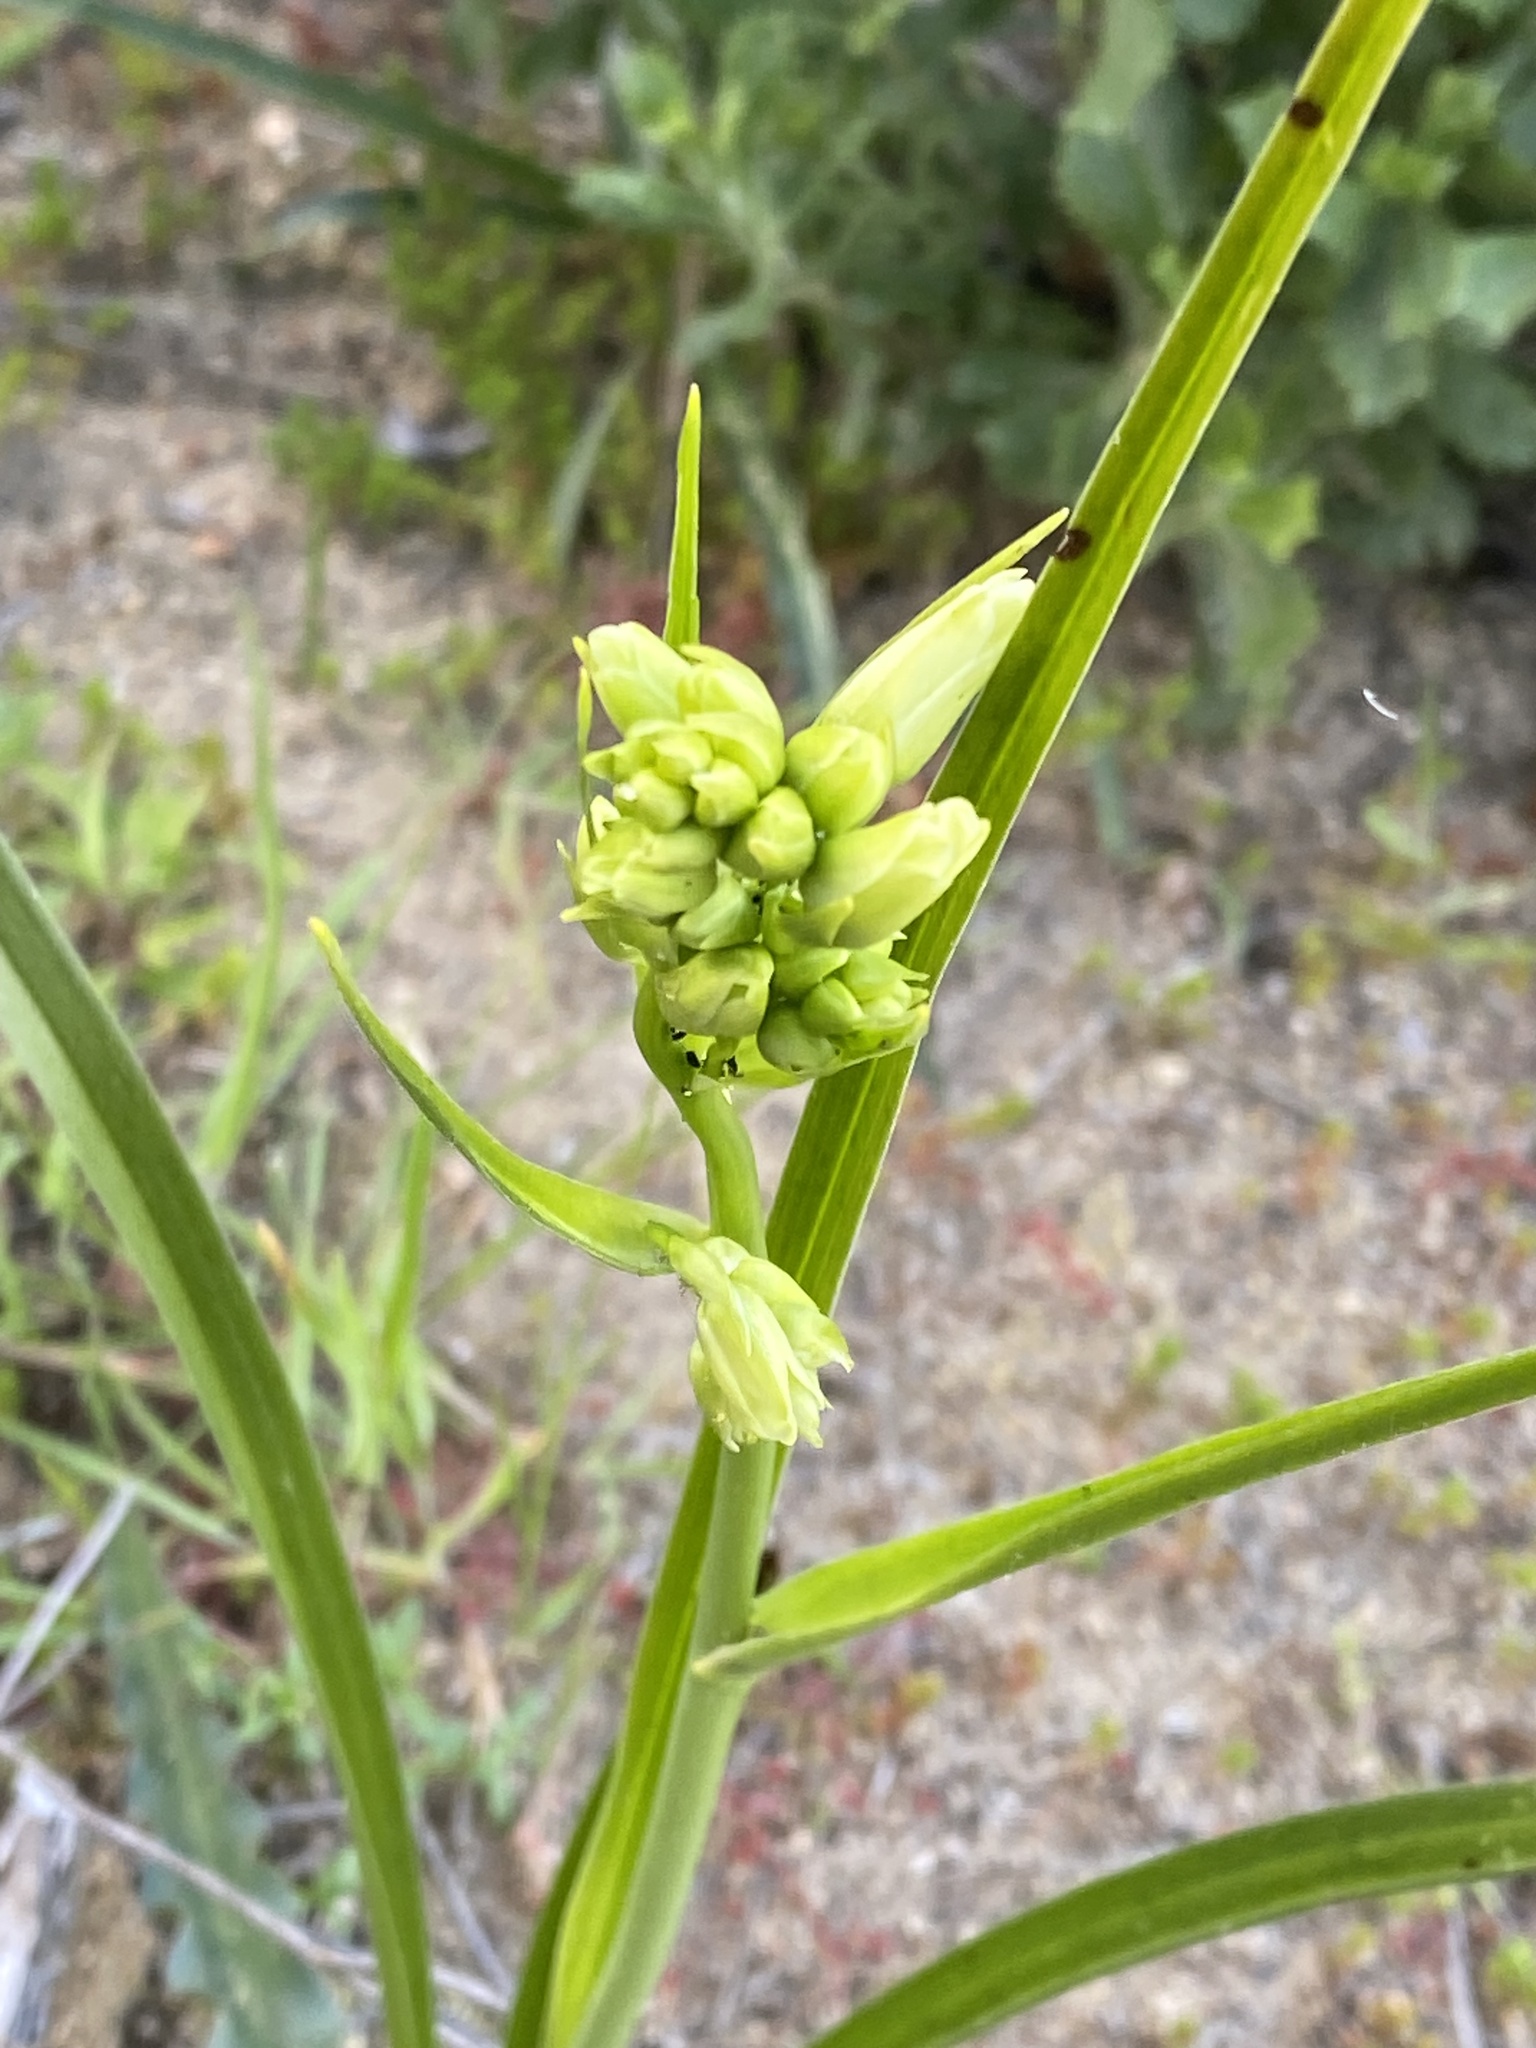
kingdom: Plantae
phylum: Tracheophyta
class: Liliopsida
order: Liliales
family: Melanthiaceae
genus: Toxicoscordion
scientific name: Toxicoscordion fremontii
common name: Fremont's death camas
